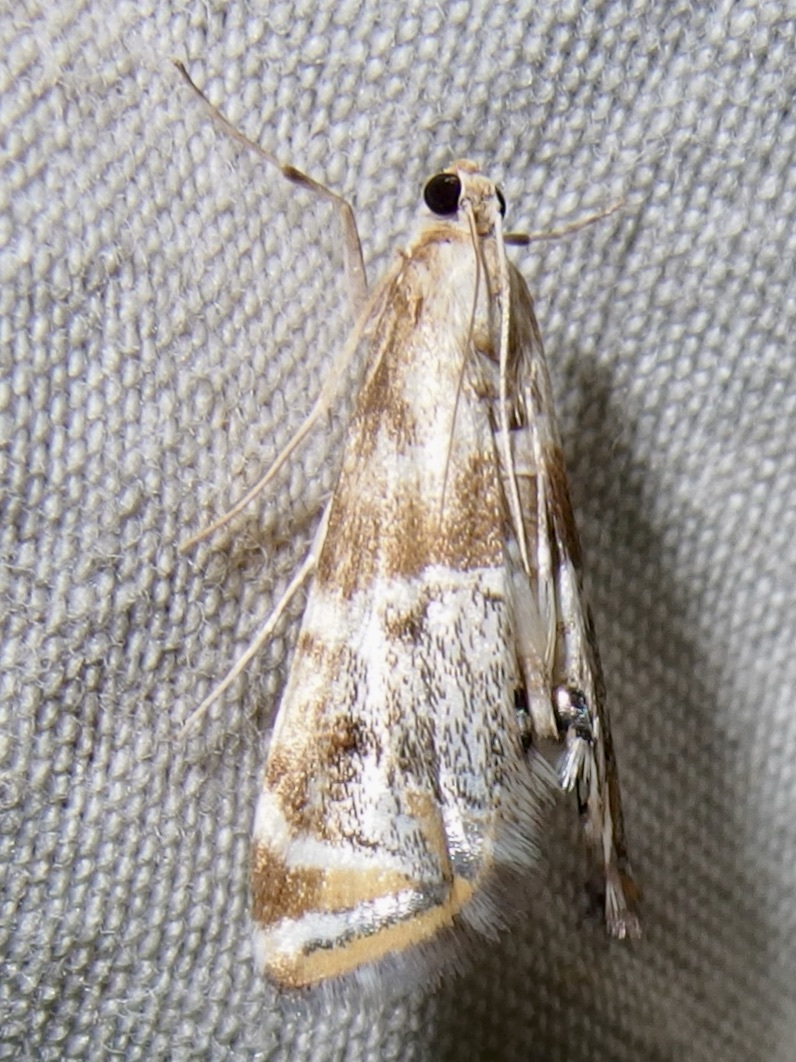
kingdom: Animalia
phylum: Arthropoda
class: Insecta
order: Lepidoptera
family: Crambidae
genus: Petrophila
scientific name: Petrophila jaliscalis
